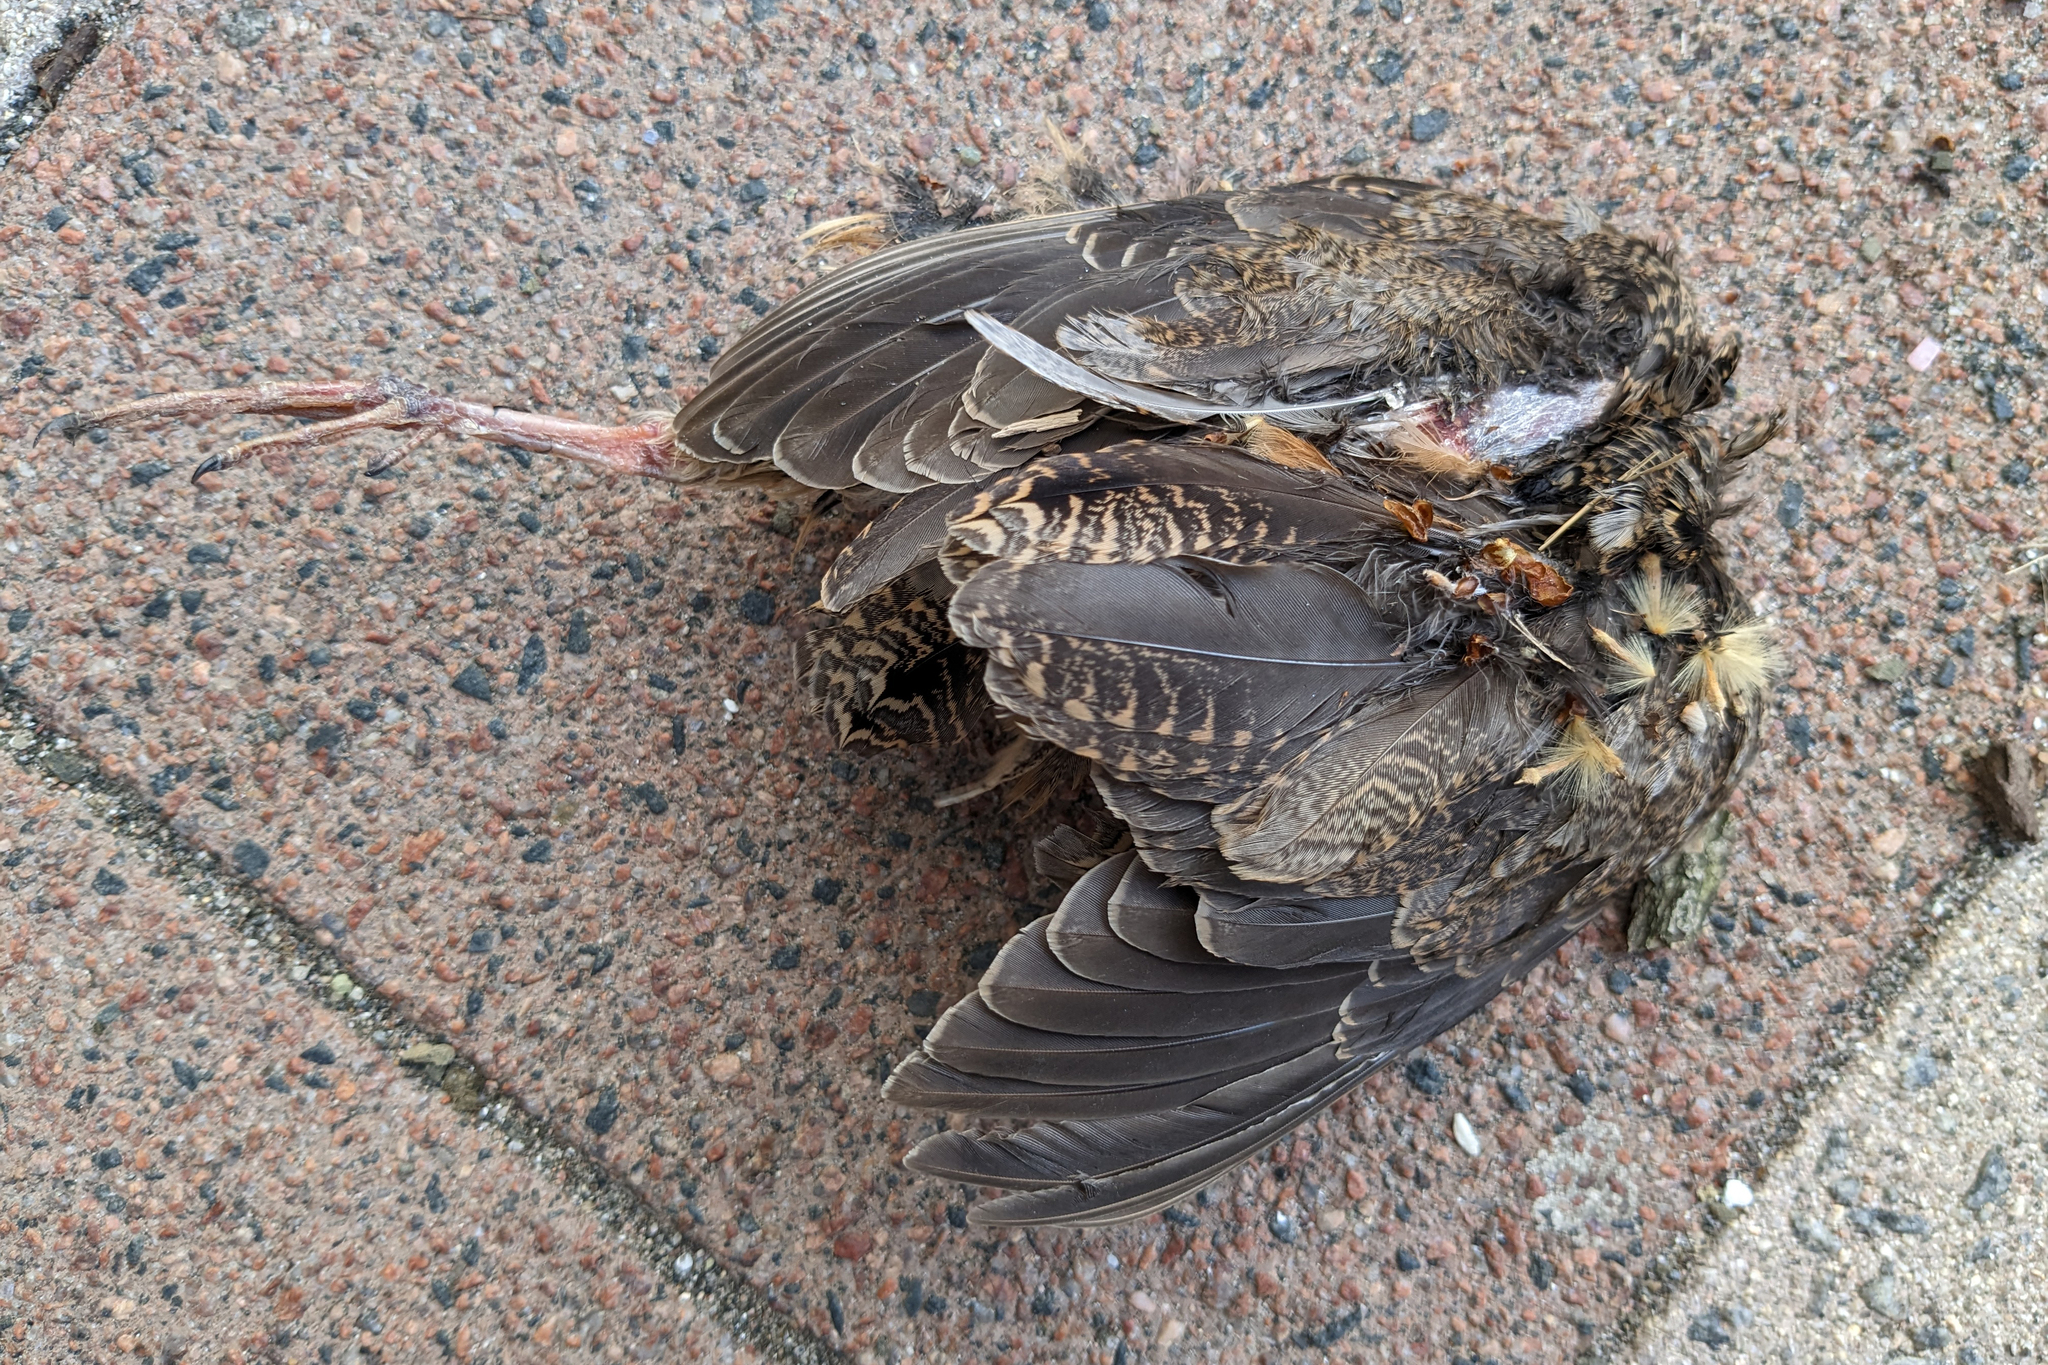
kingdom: Animalia
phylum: Chordata
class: Aves
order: Charadriiformes
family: Scolopacidae
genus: Scolopax
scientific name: Scolopax minor
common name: American woodcock
